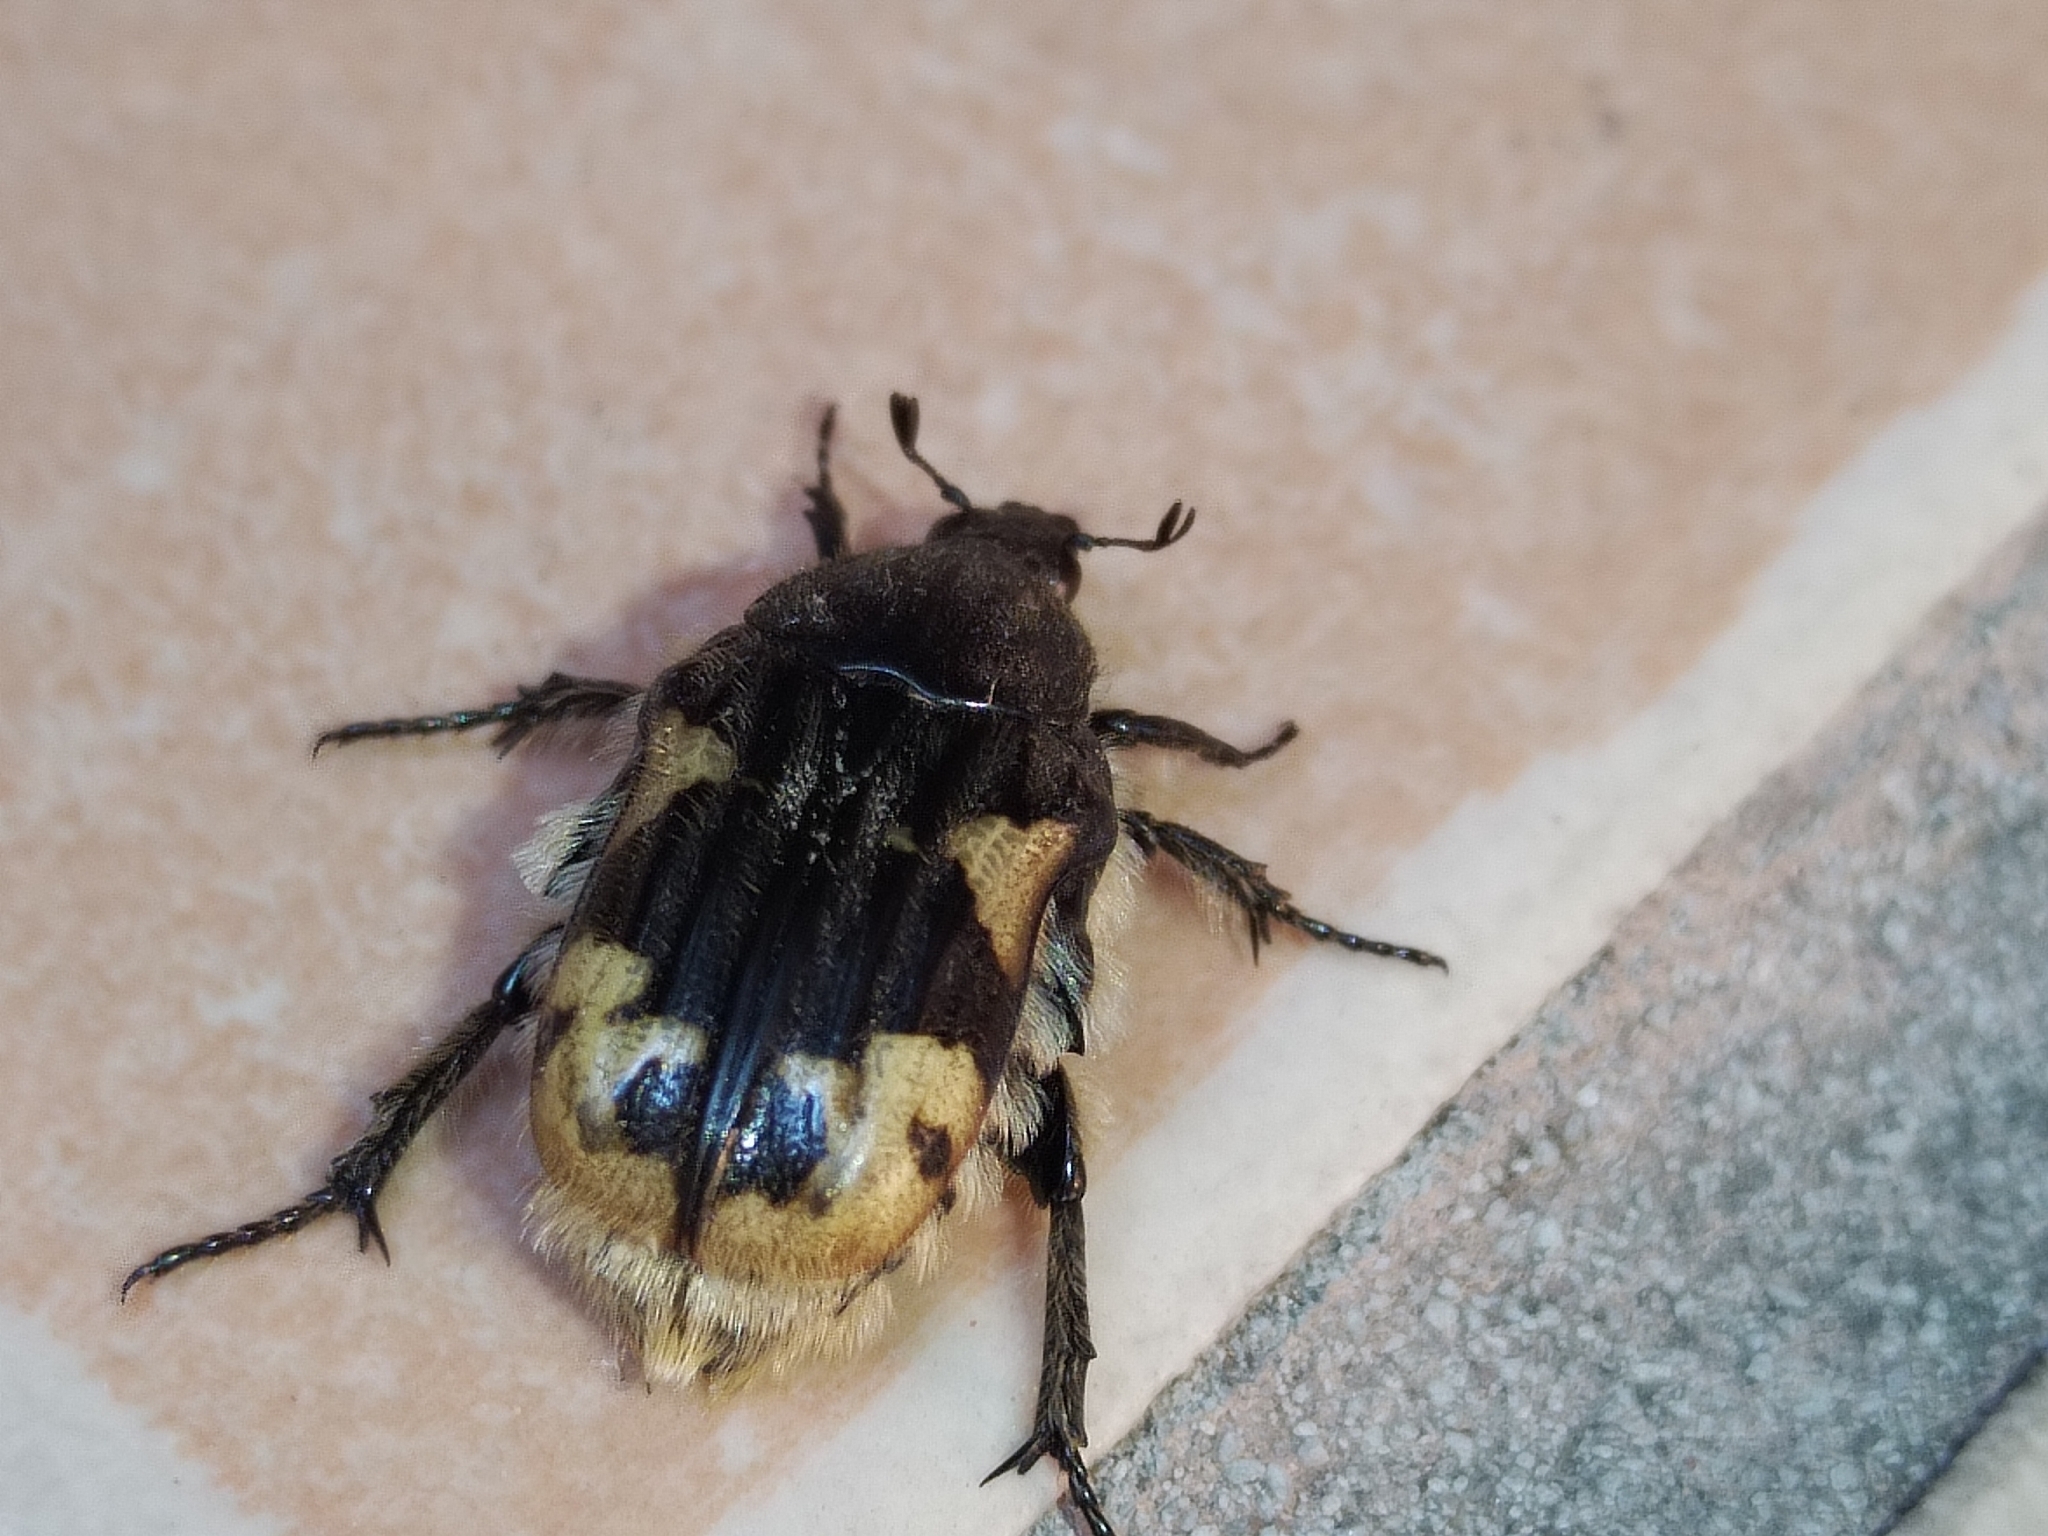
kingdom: Animalia
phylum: Arthropoda
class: Insecta
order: Coleoptera
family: Scarabaeidae
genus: Euphoria
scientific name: Euphoria basalis
